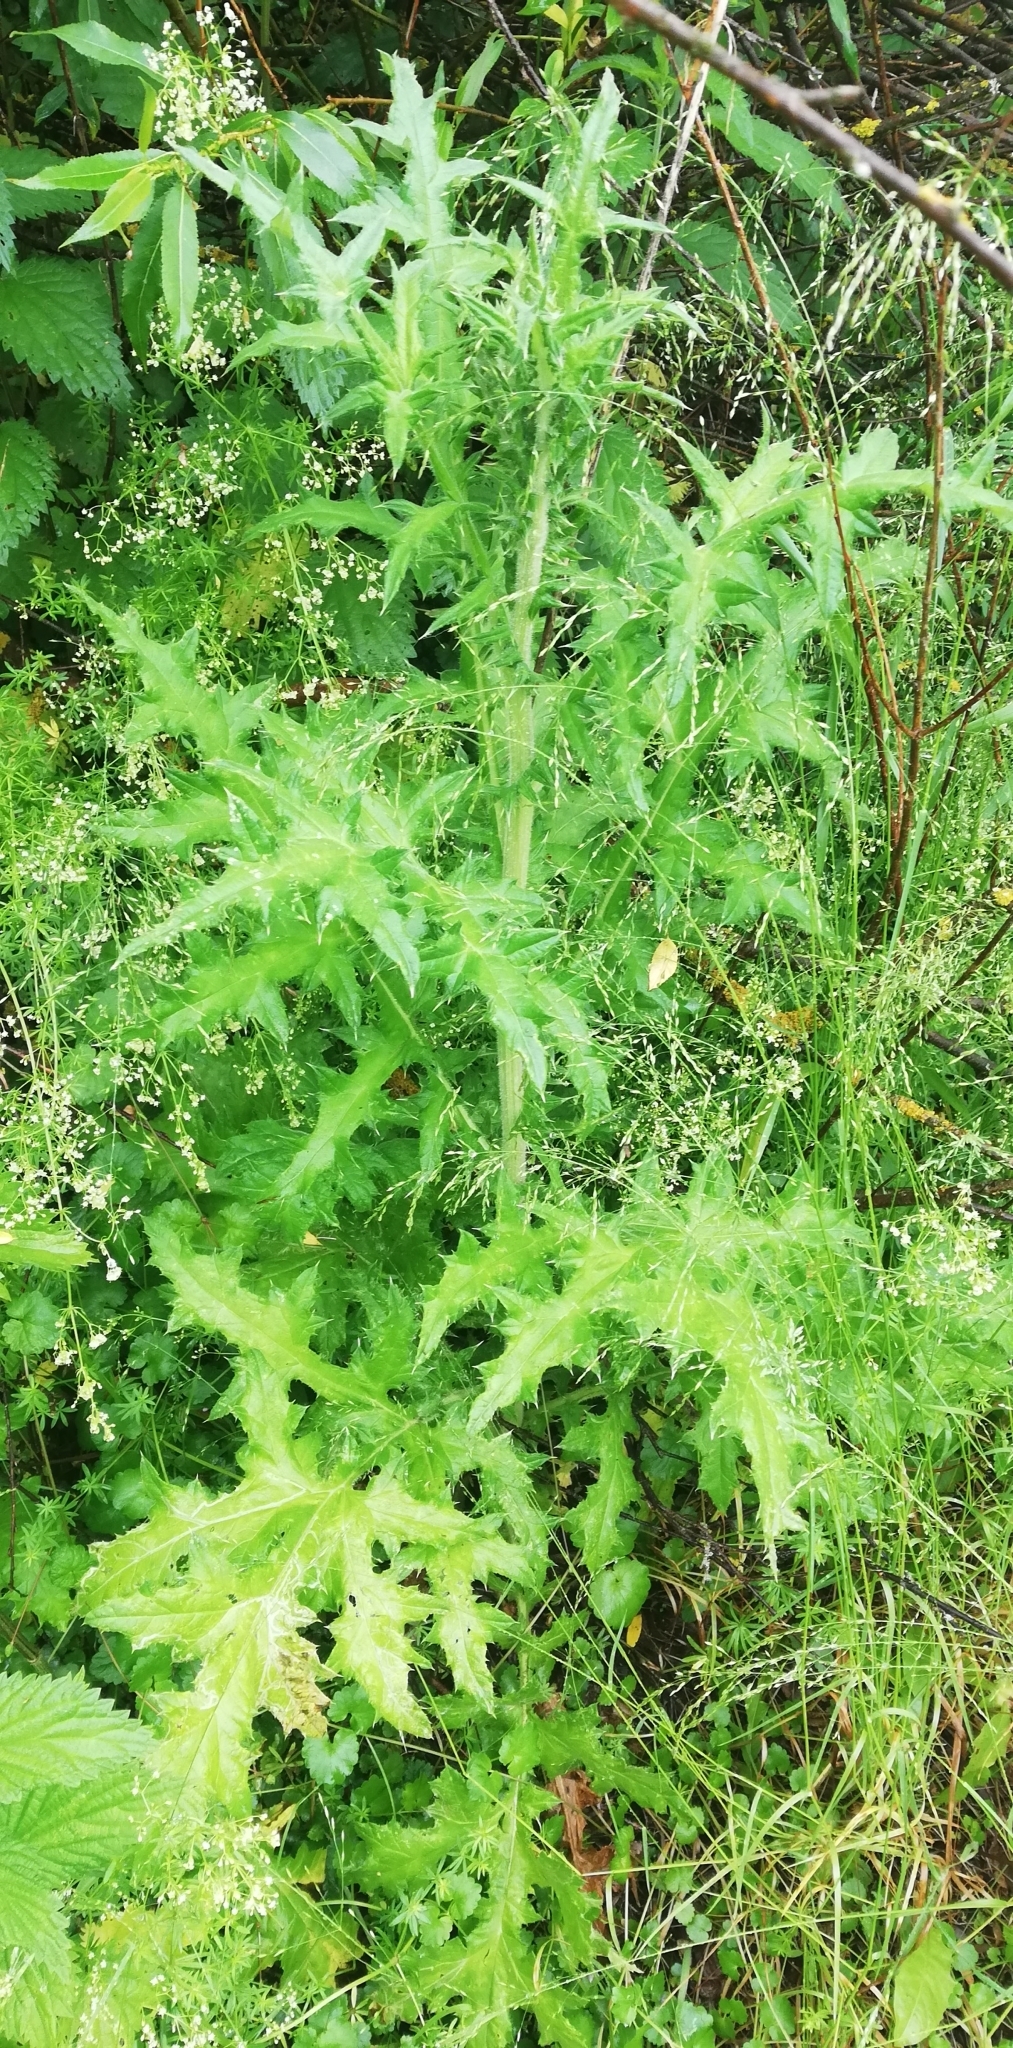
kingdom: Plantae
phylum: Tracheophyta
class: Magnoliopsida
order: Asterales
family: Asteraceae
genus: Echinops
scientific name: Echinops sphaerocephalus
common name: Glandular globe-thistle
